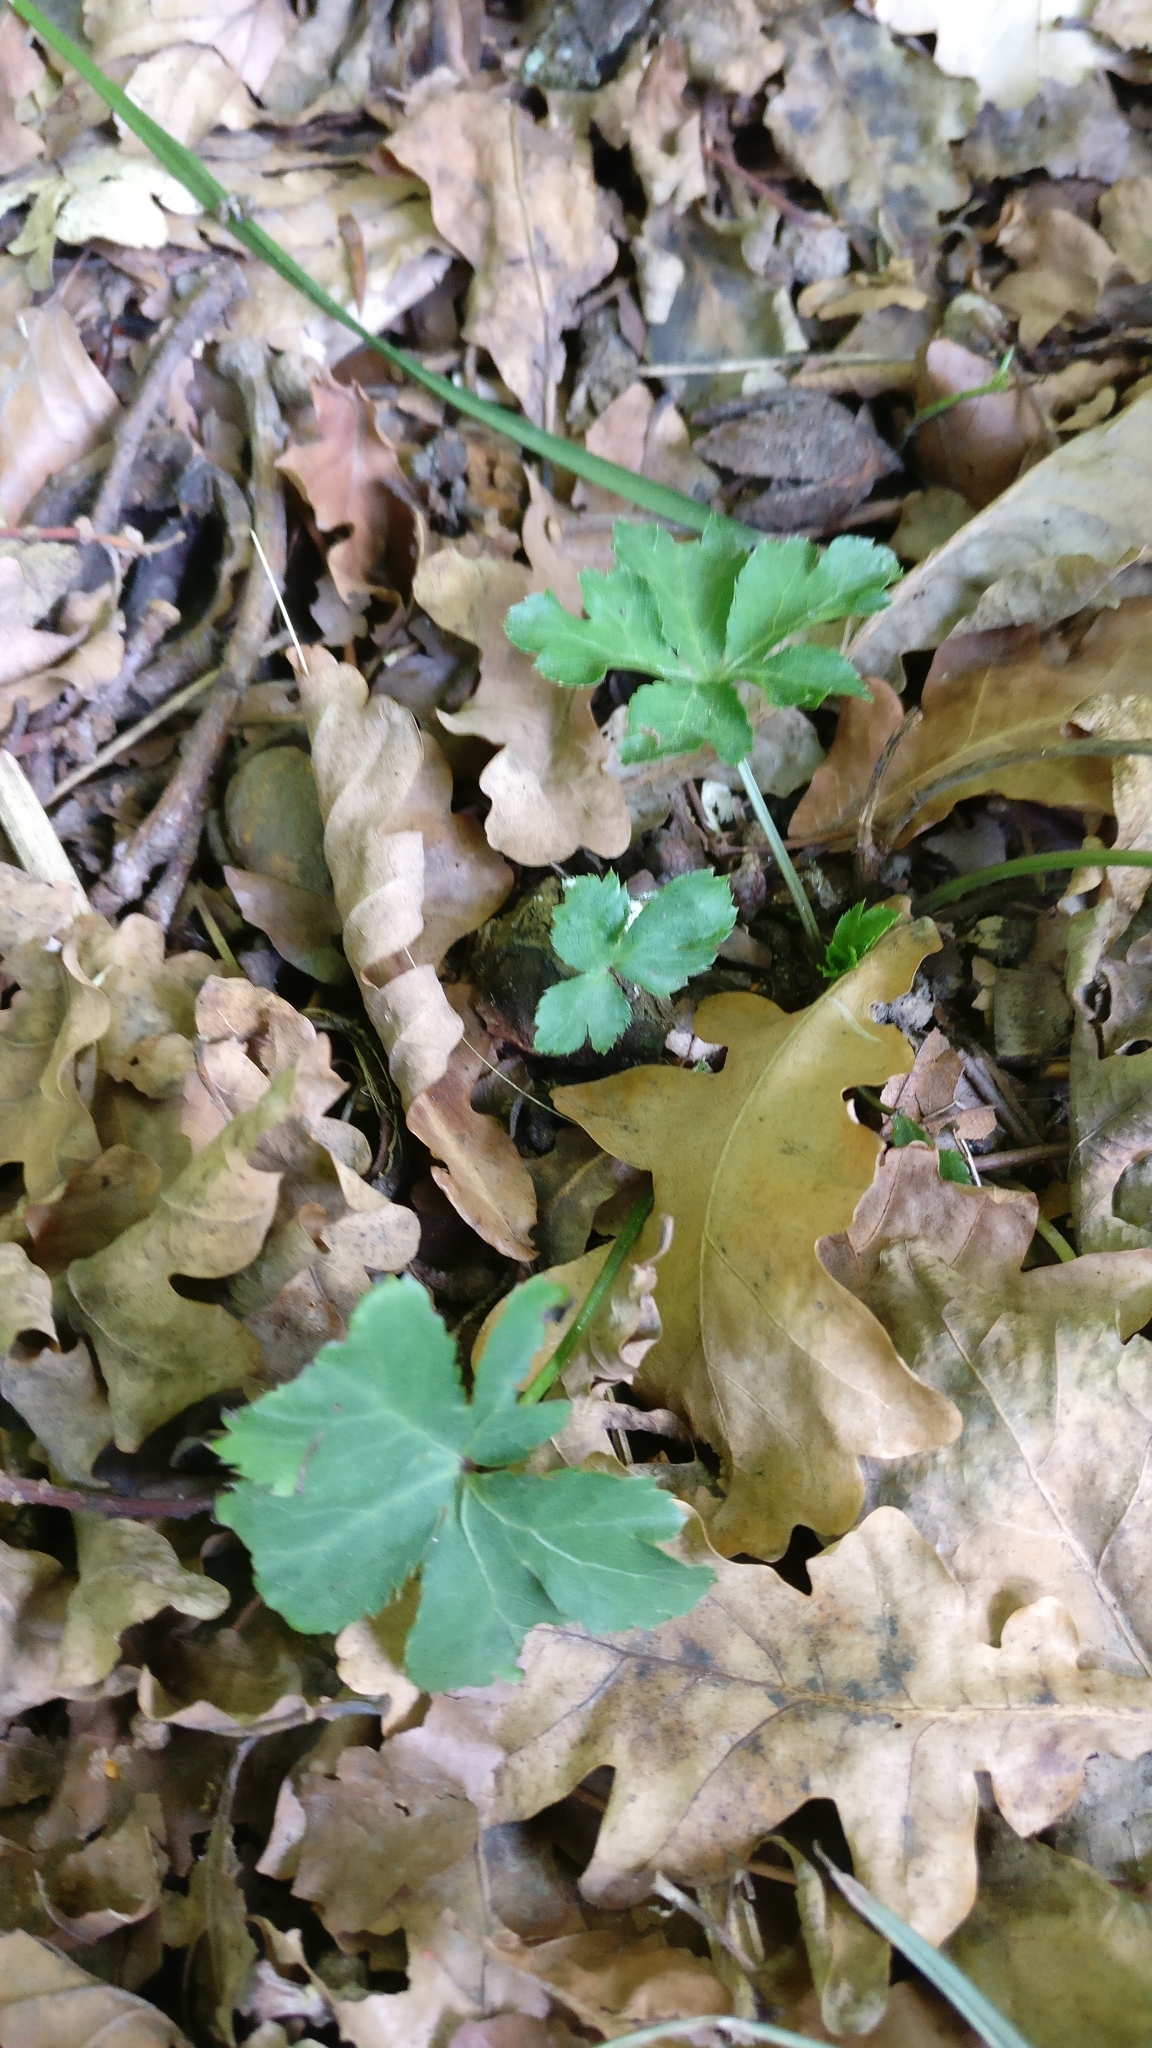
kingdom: Plantae
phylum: Tracheophyta
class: Magnoliopsida
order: Apiales
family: Apiaceae
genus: Sanicula
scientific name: Sanicula europaea
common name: Sanicle
